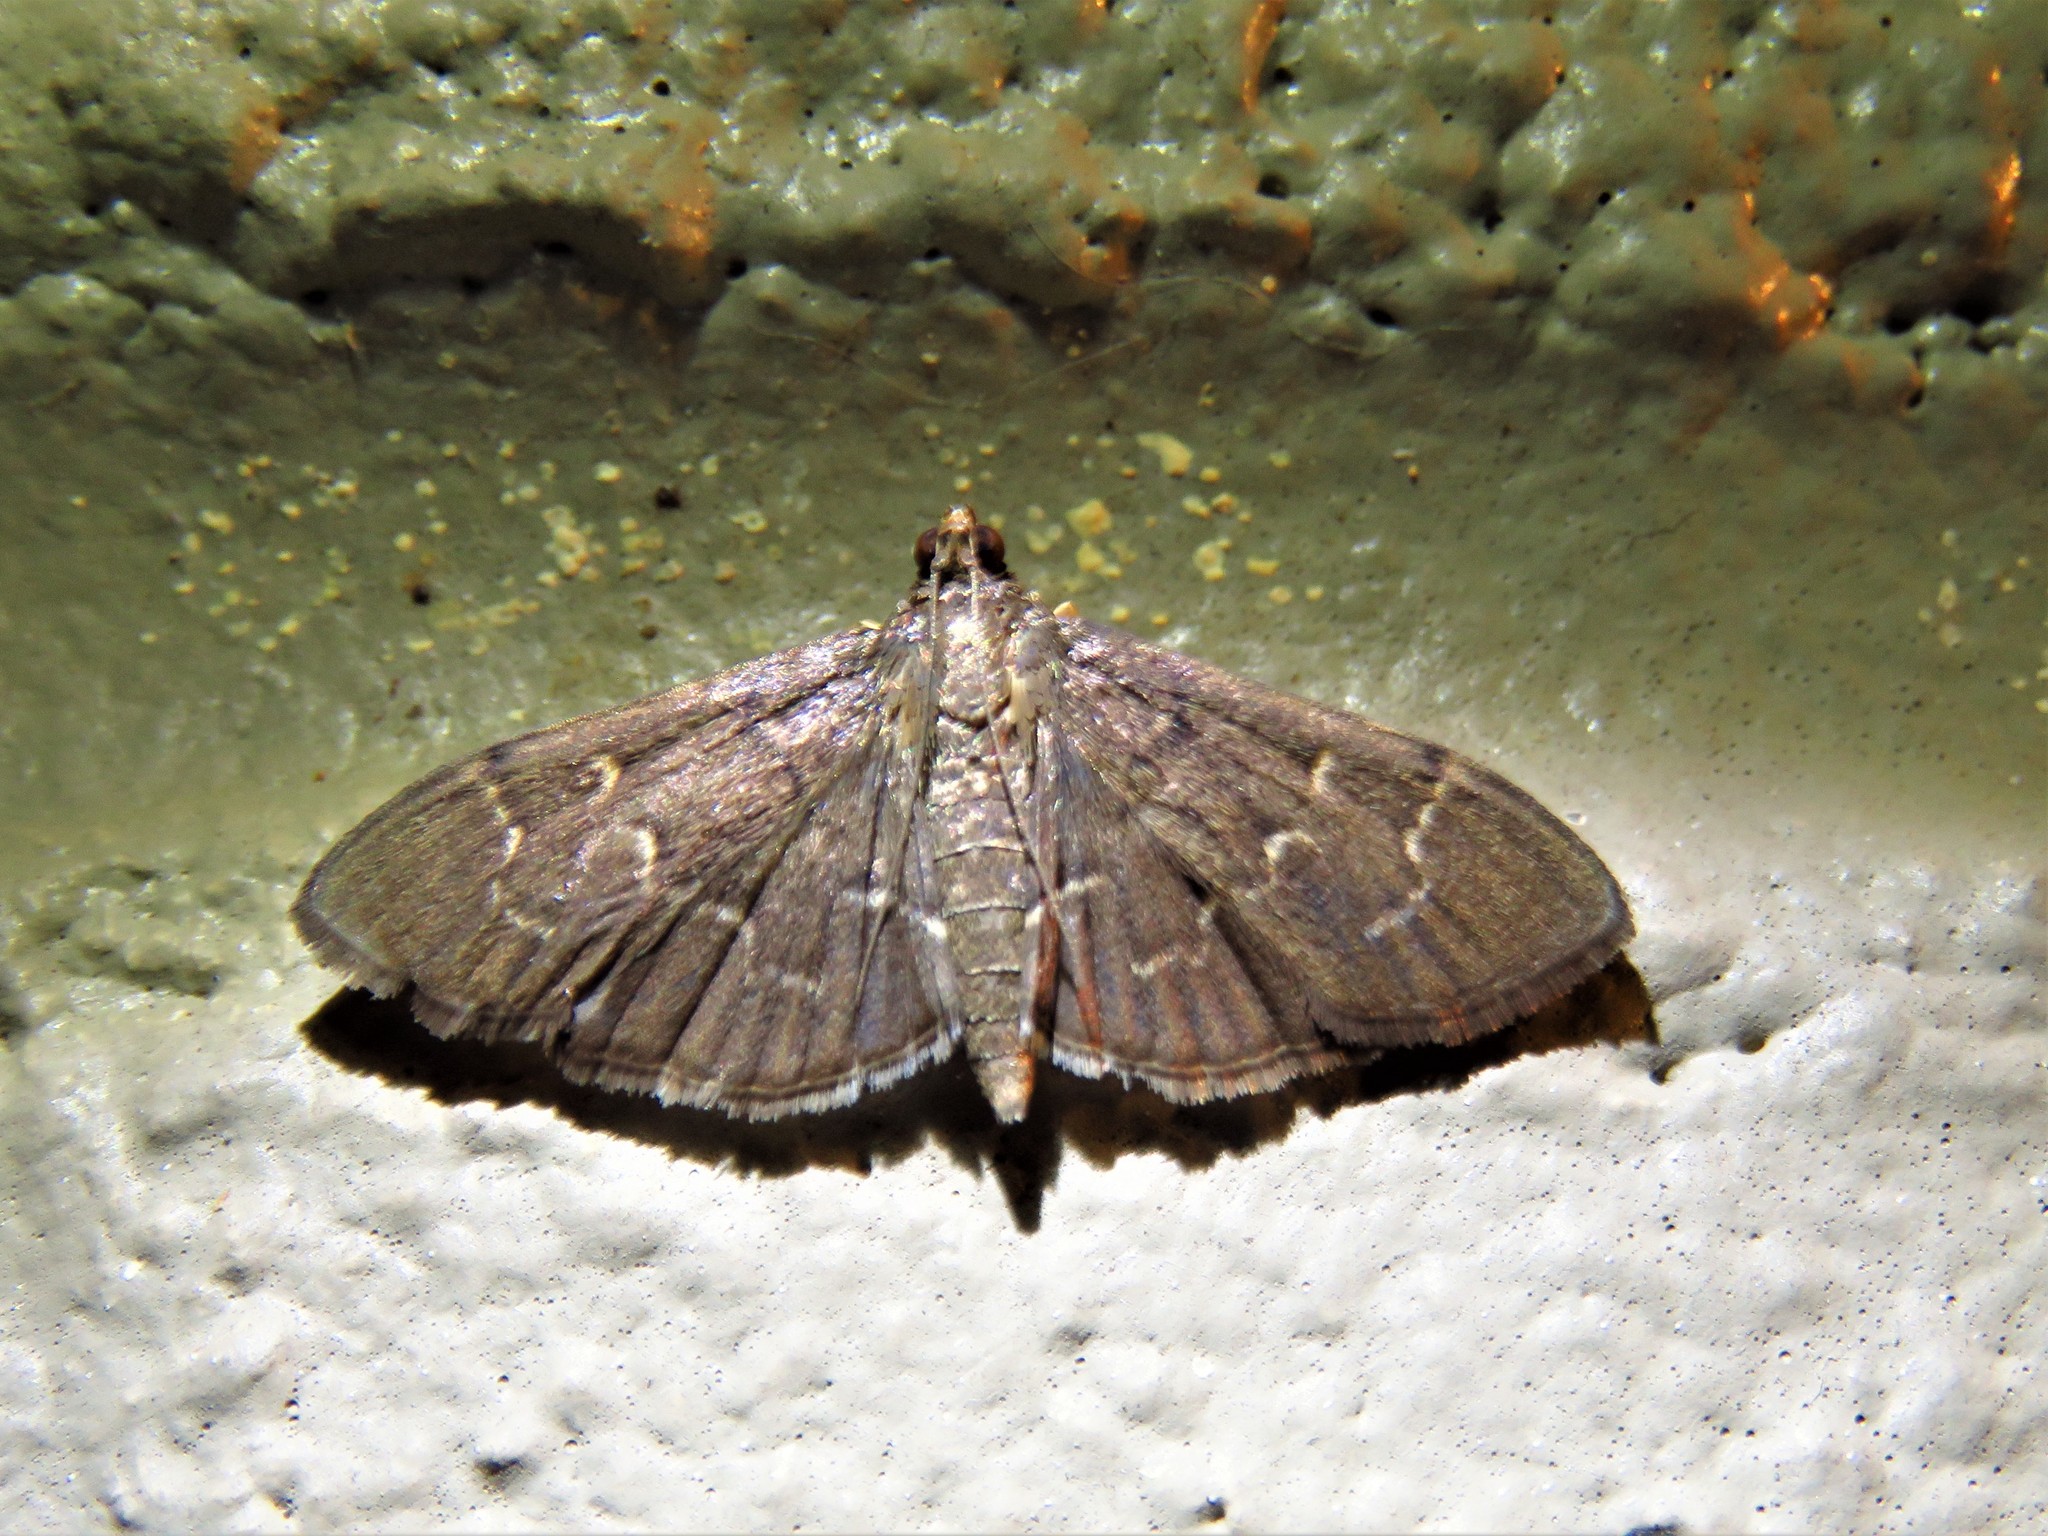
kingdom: Animalia
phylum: Arthropoda
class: Insecta
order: Lepidoptera
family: Crambidae
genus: Pilocrocis
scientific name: Pilocrocis ramentalis
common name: Scraped pilocrocis
